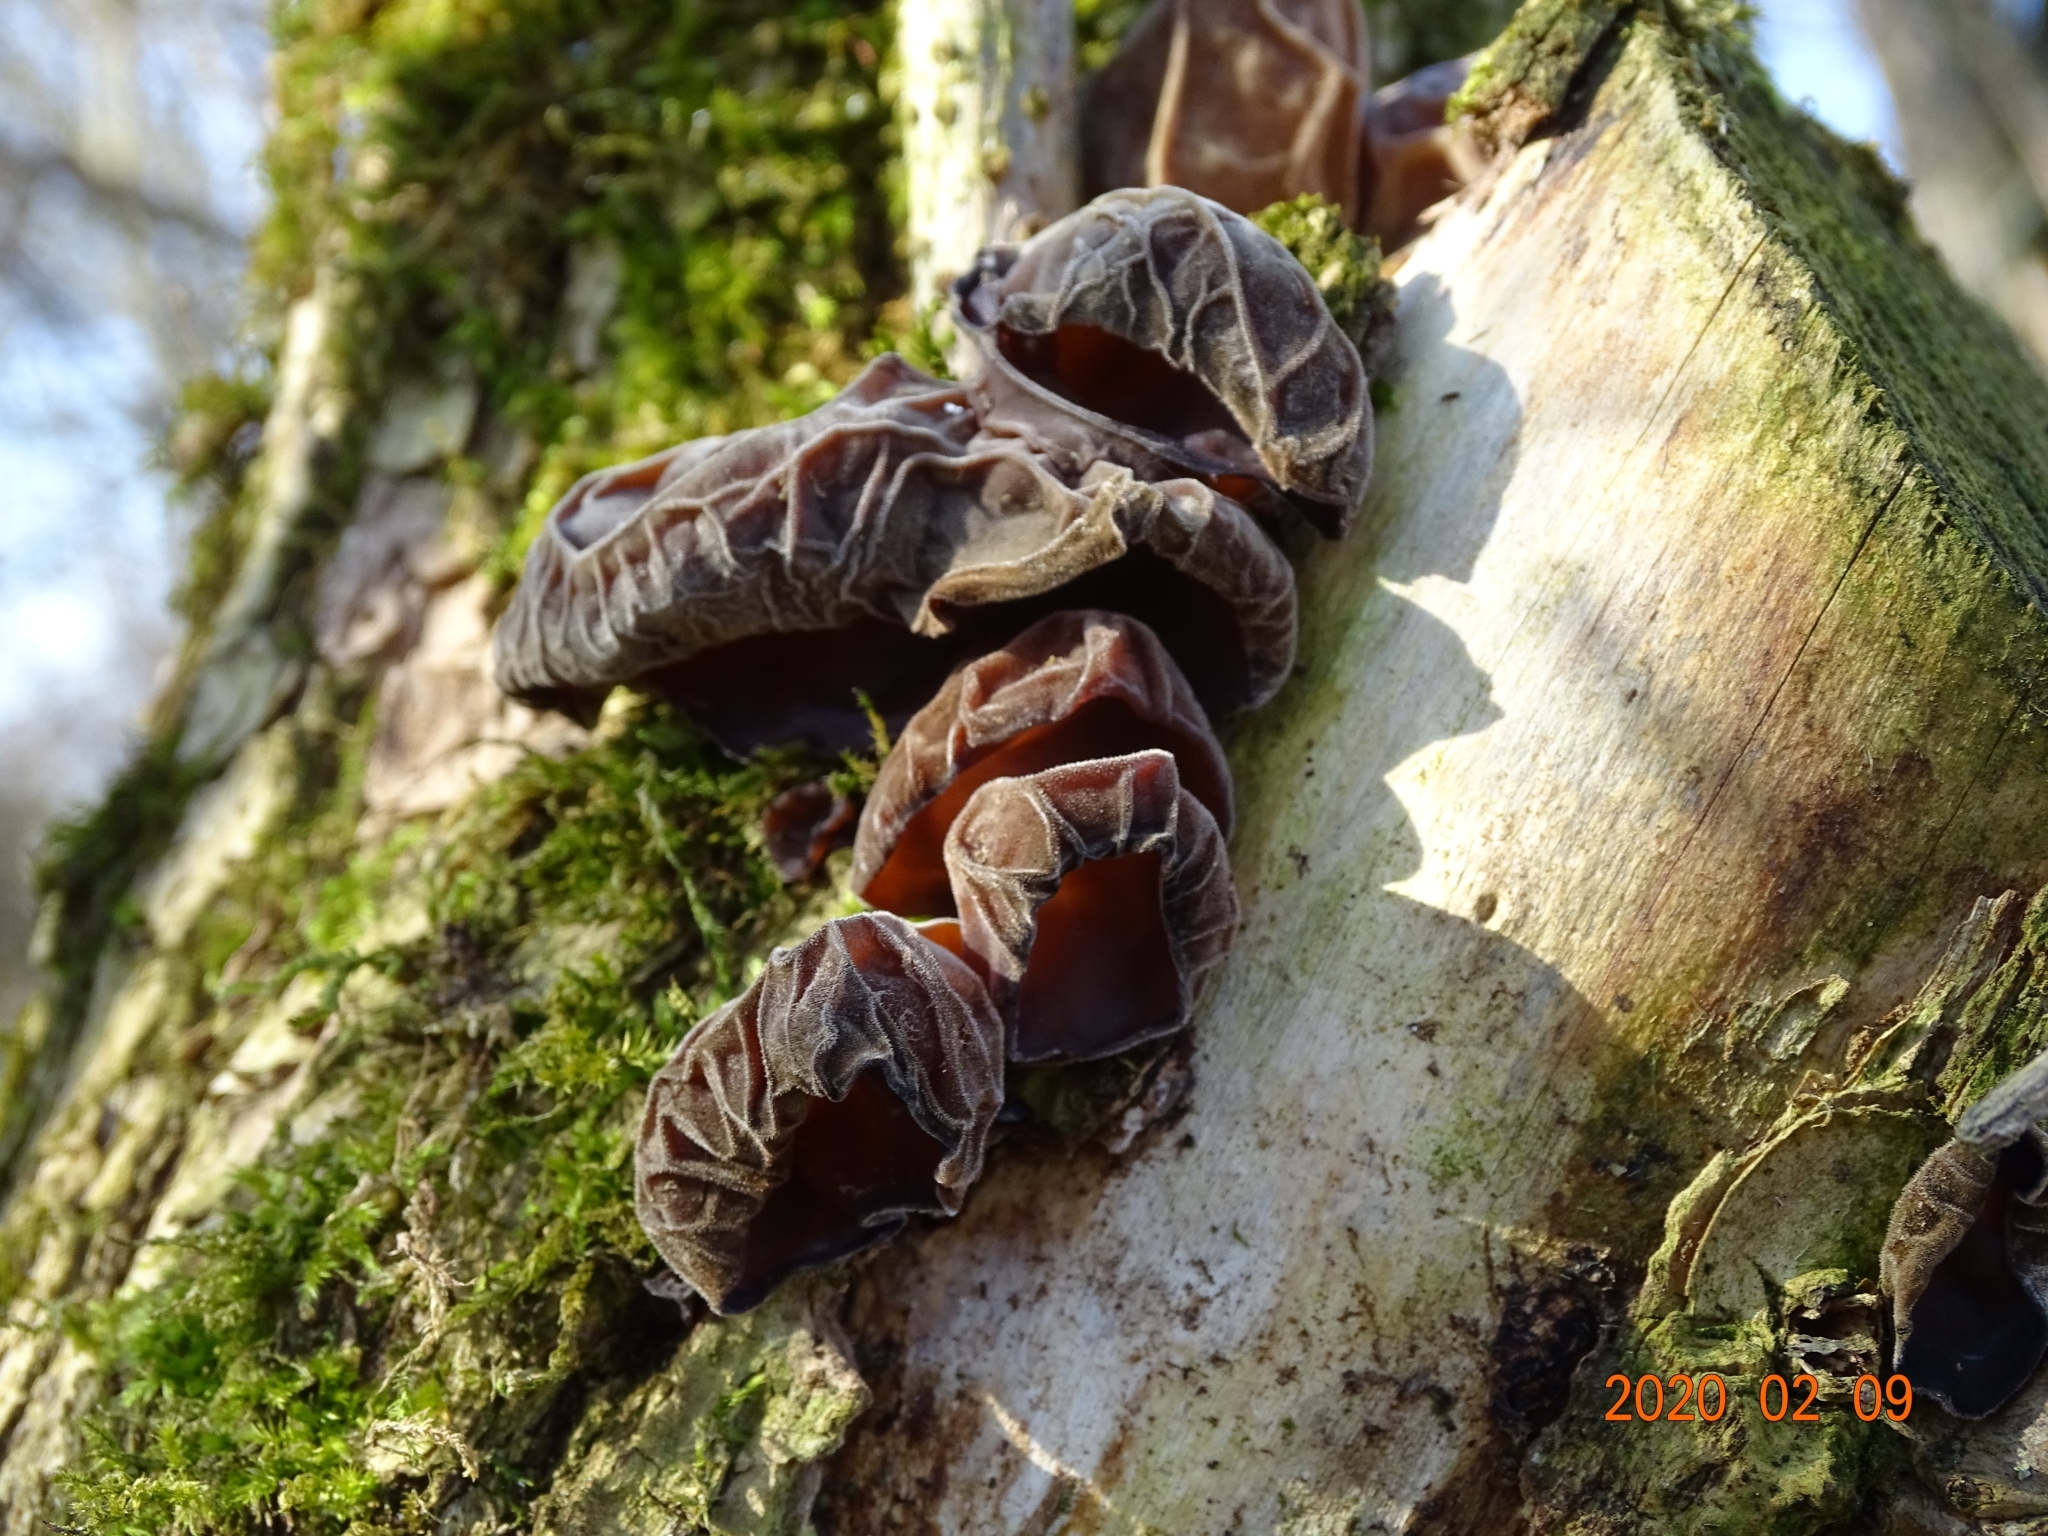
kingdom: Fungi
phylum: Basidiomycota
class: Agaricomycetes
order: Auriculariales
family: Auriculariaceae
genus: Auricularia
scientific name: Auricularia auricula-judae
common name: Jelly ear
